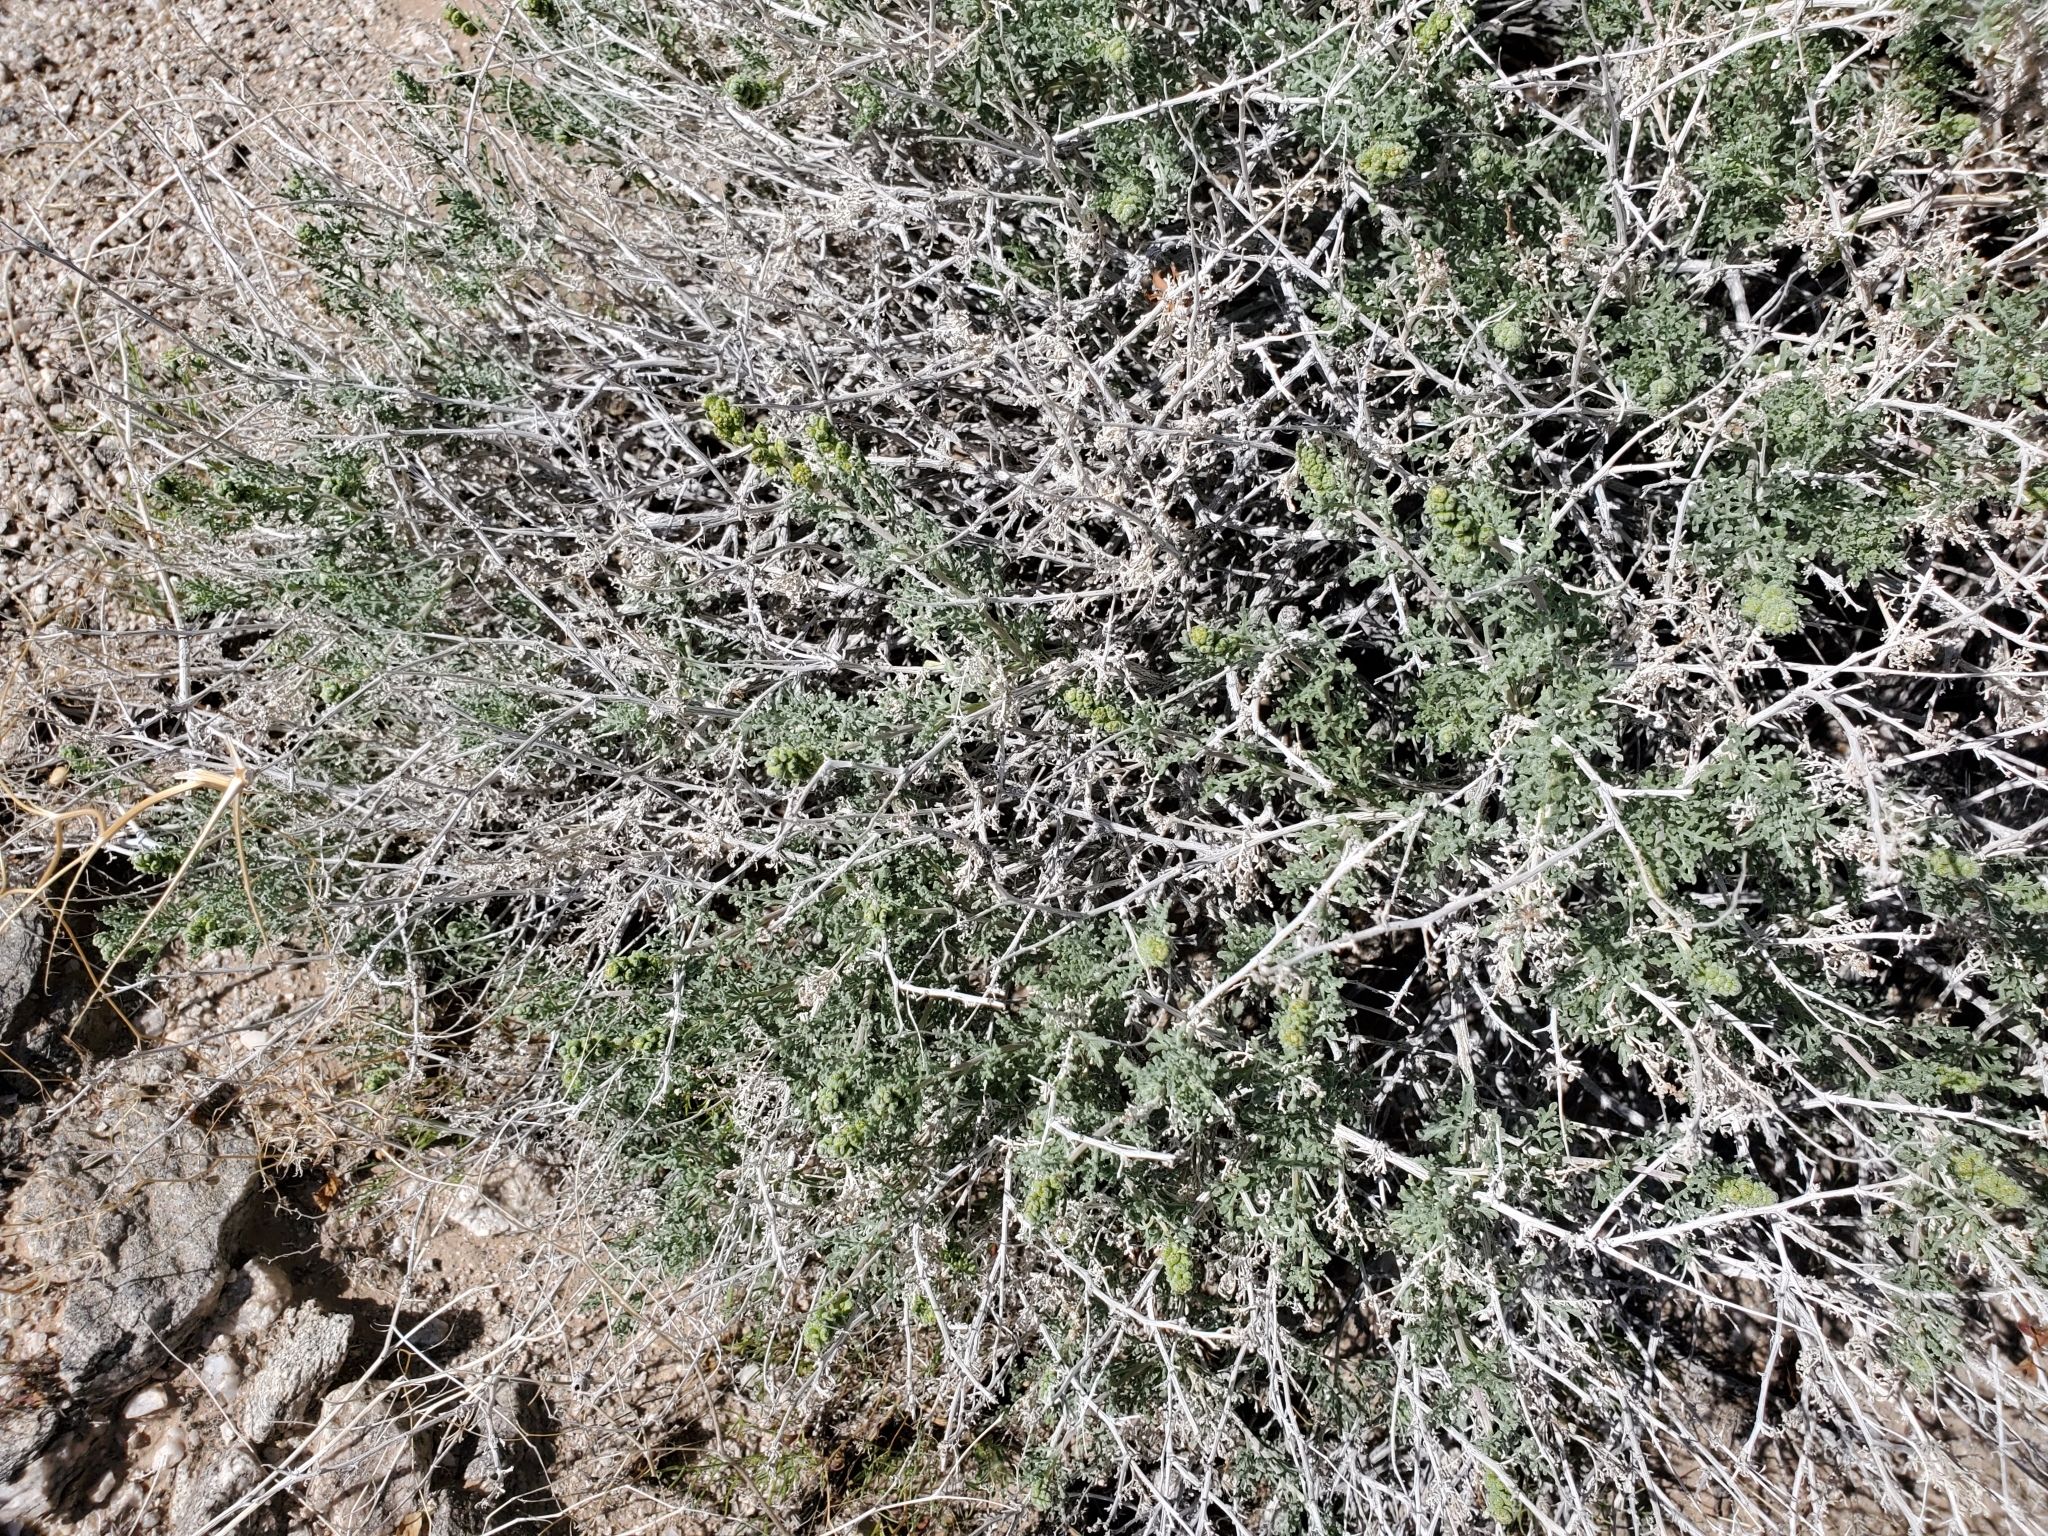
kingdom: Plantae
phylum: Tracheophyta
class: Magnoliopsida
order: Asterales
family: Asteraceae
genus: Ambrosia
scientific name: Ambrosia dumosa
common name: Bur-sage
